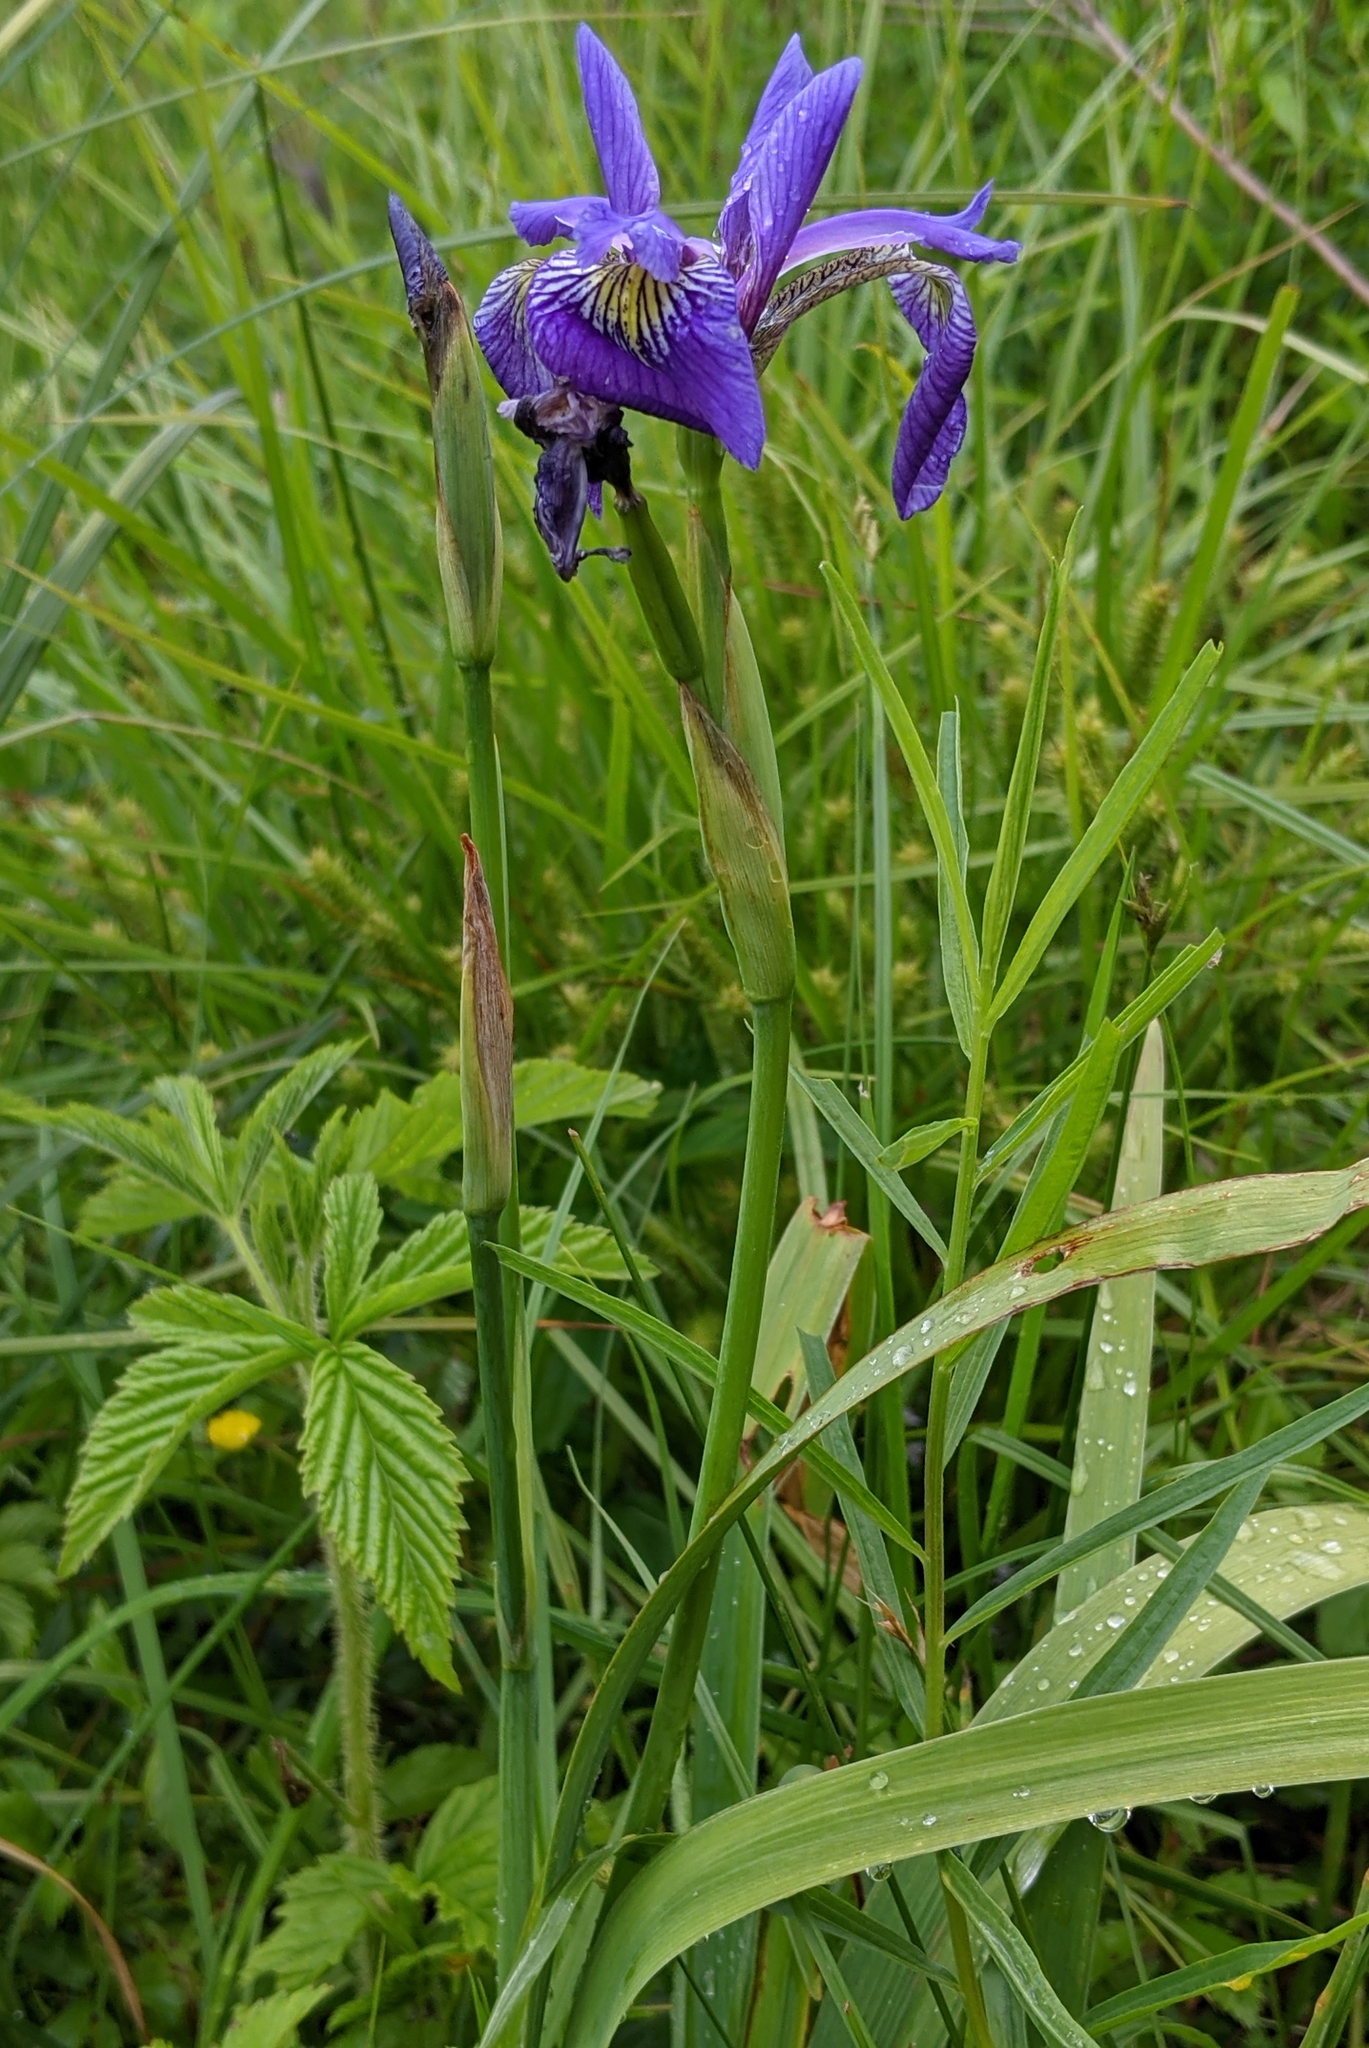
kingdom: Plantae
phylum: Tracheophyta
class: Liliopsida
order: Asparagales
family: Iridaceae
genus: Iris
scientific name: Iris versicolor
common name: Purple iris
